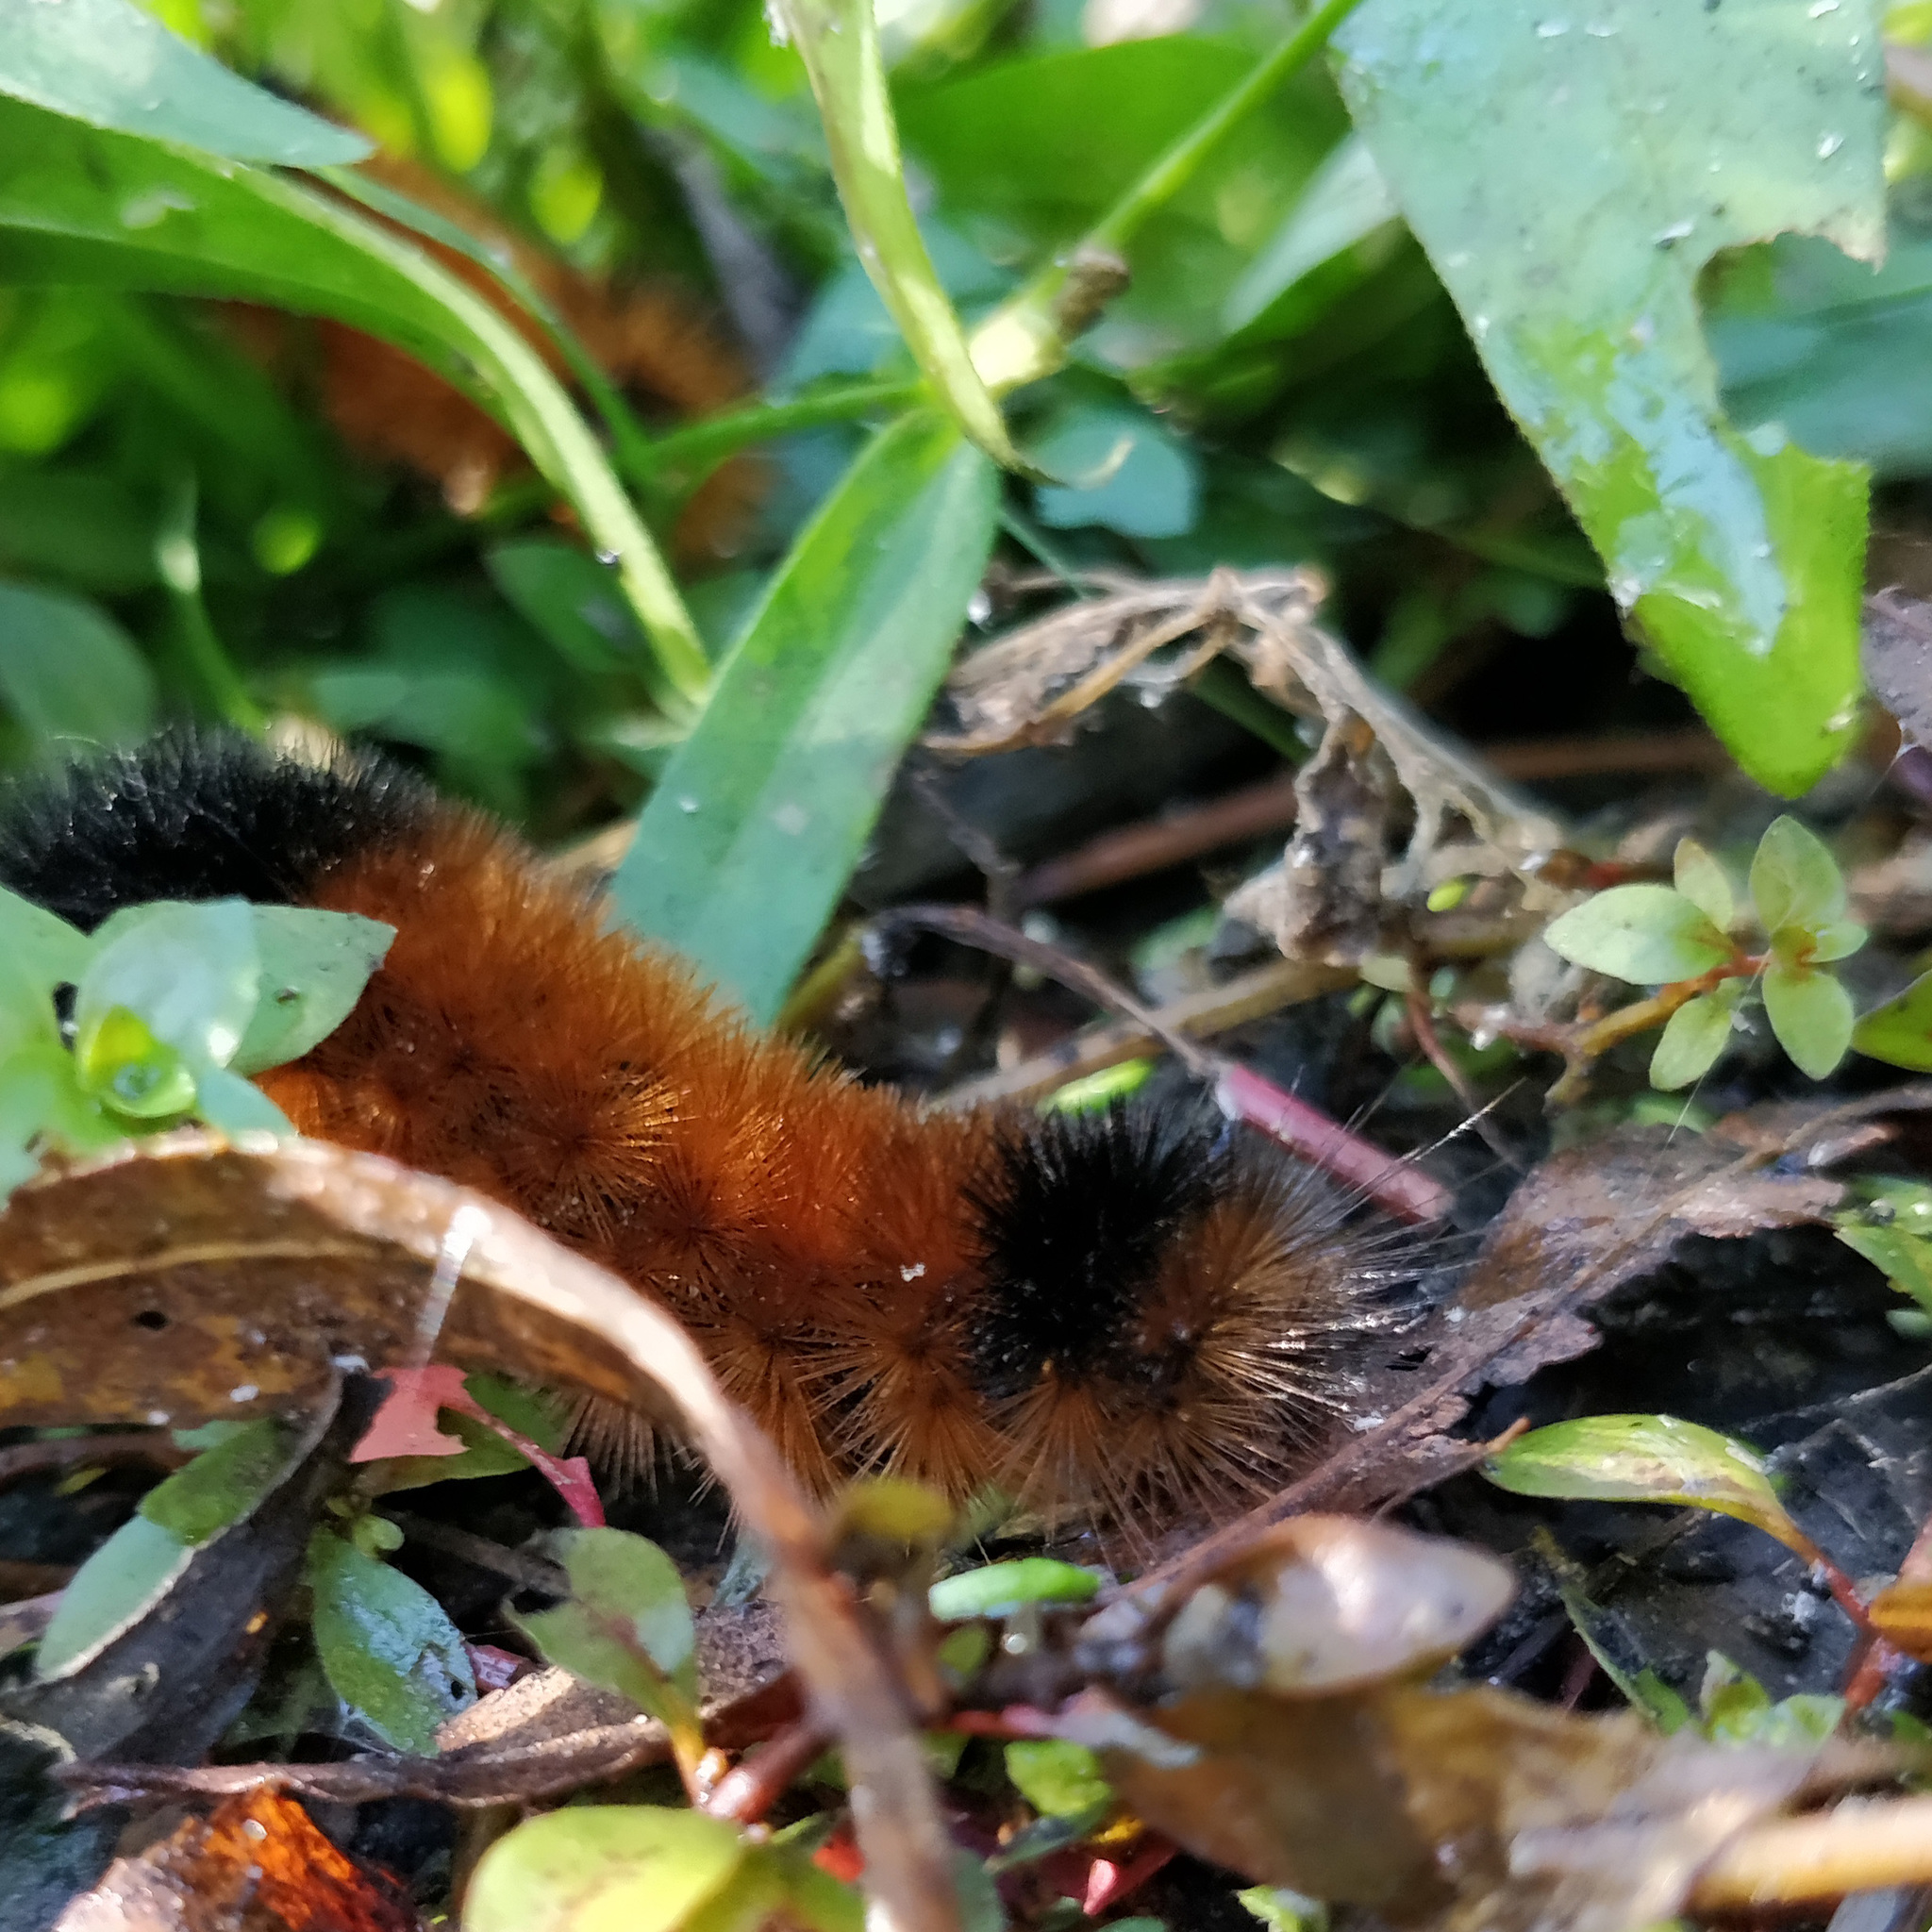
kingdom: Animalia
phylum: Arthropoda
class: Insecta
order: Lepidoptera
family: Erebidae
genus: Pyrrharctia
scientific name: Pyrrharctia isabella
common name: Isabella tiger moth
